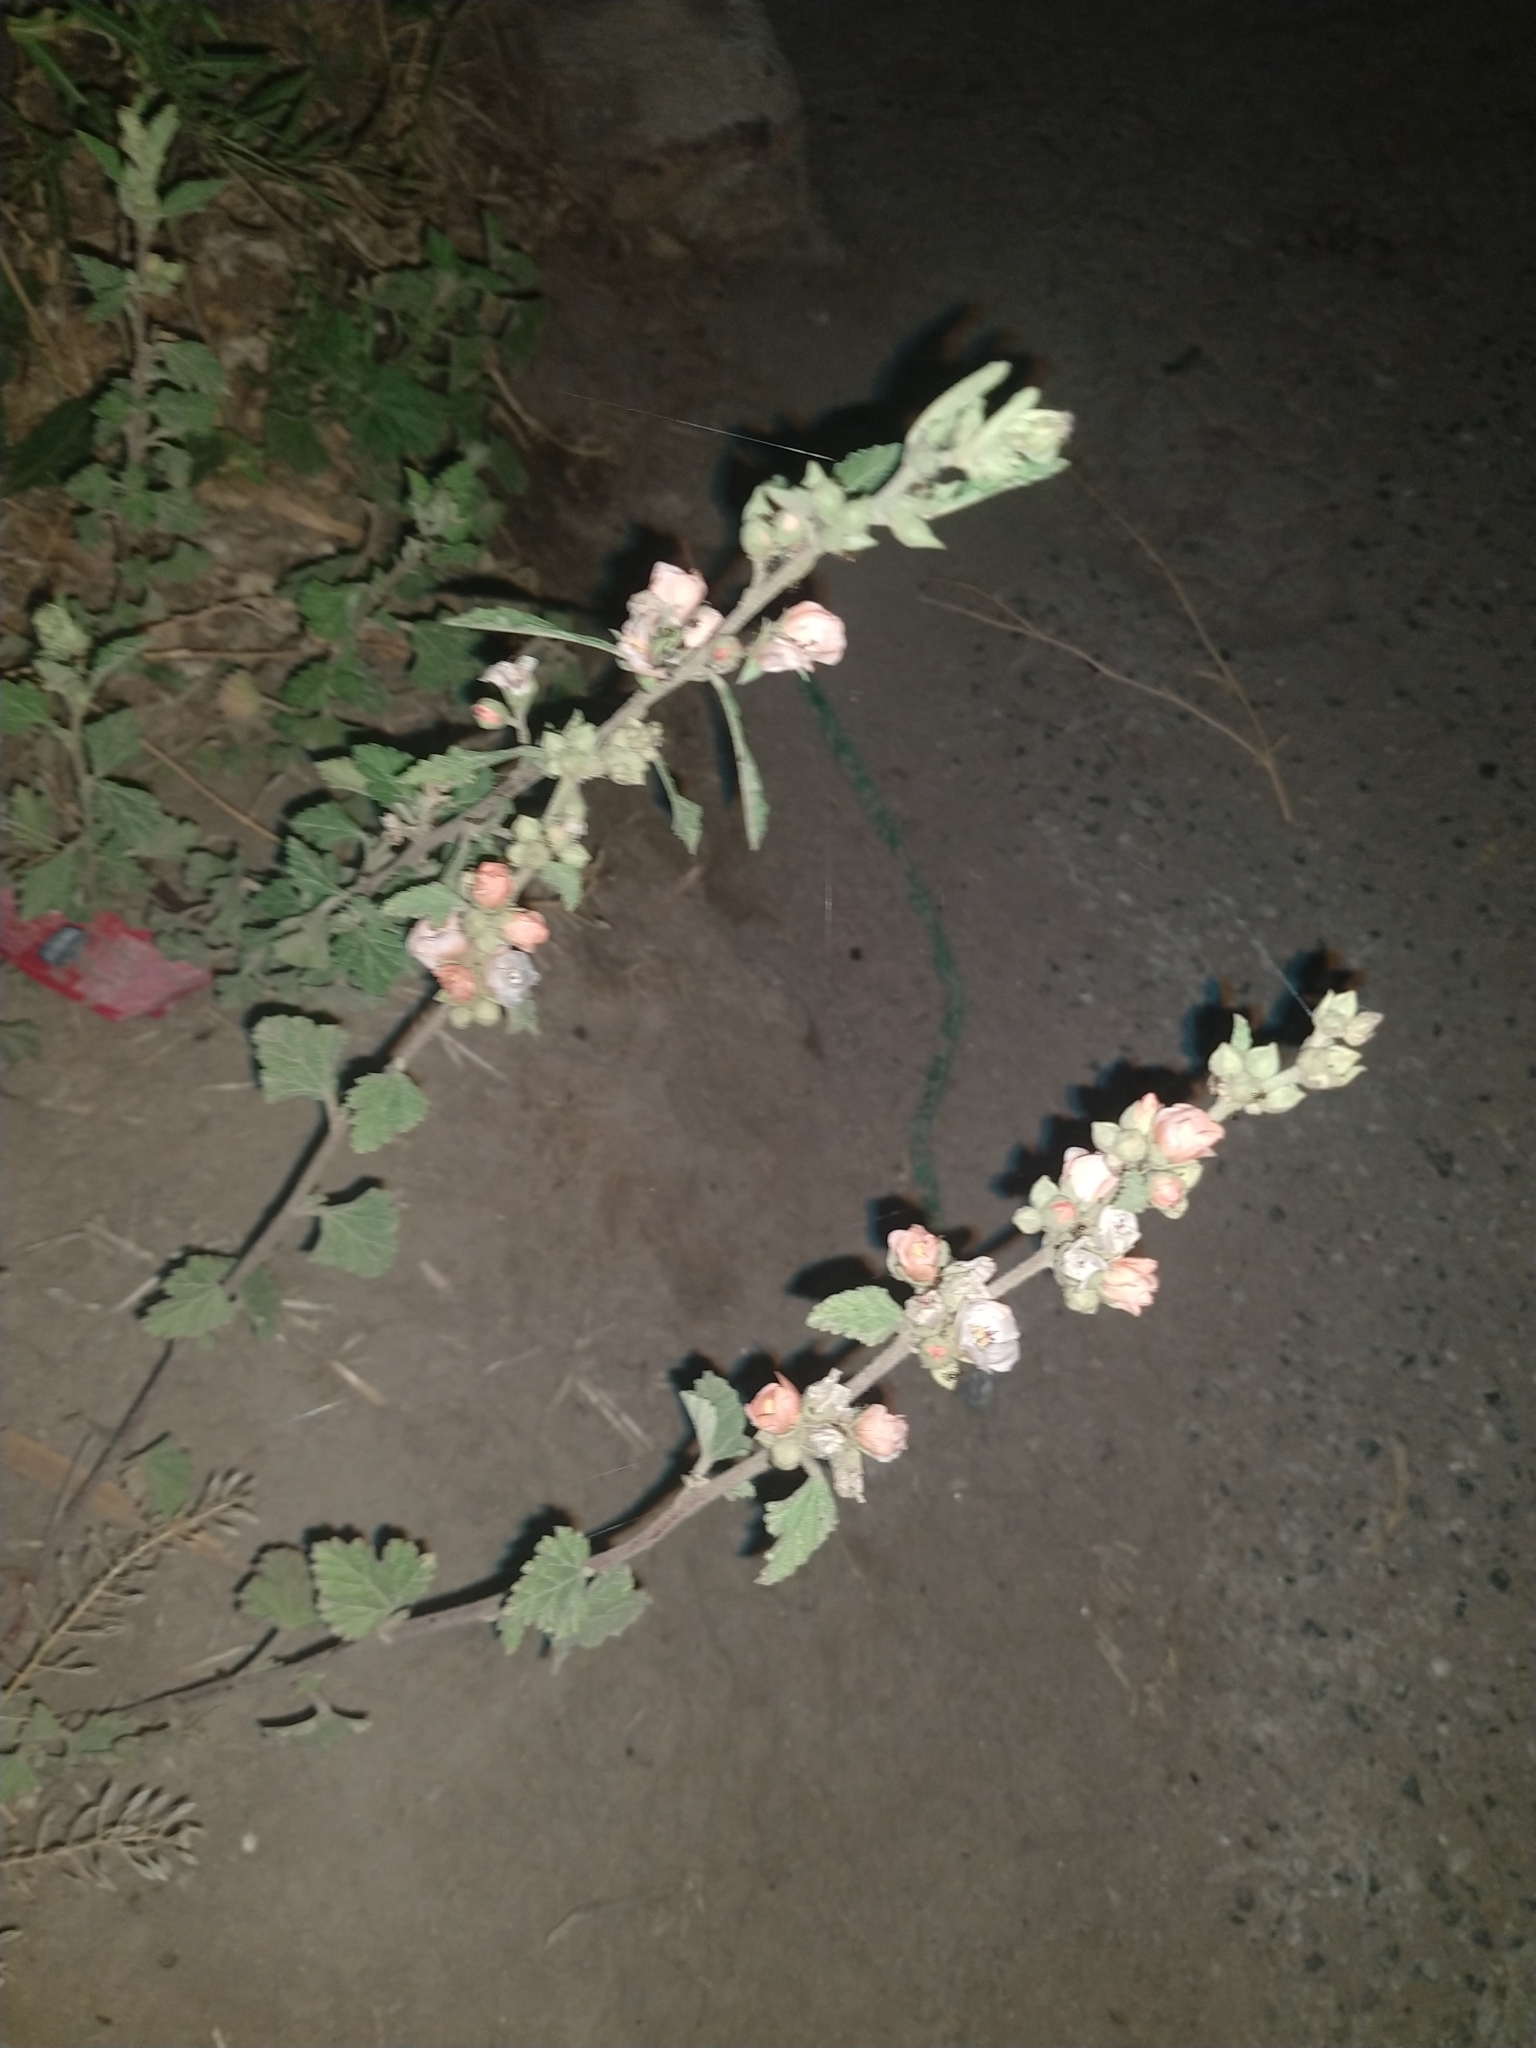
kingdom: Plantae
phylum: Tracheophyta
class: Magnoliopsida
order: Malvales
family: Malvaceae
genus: Sphaeralcea
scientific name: Sphaeralcea bonariensis
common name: Latin globemallow
